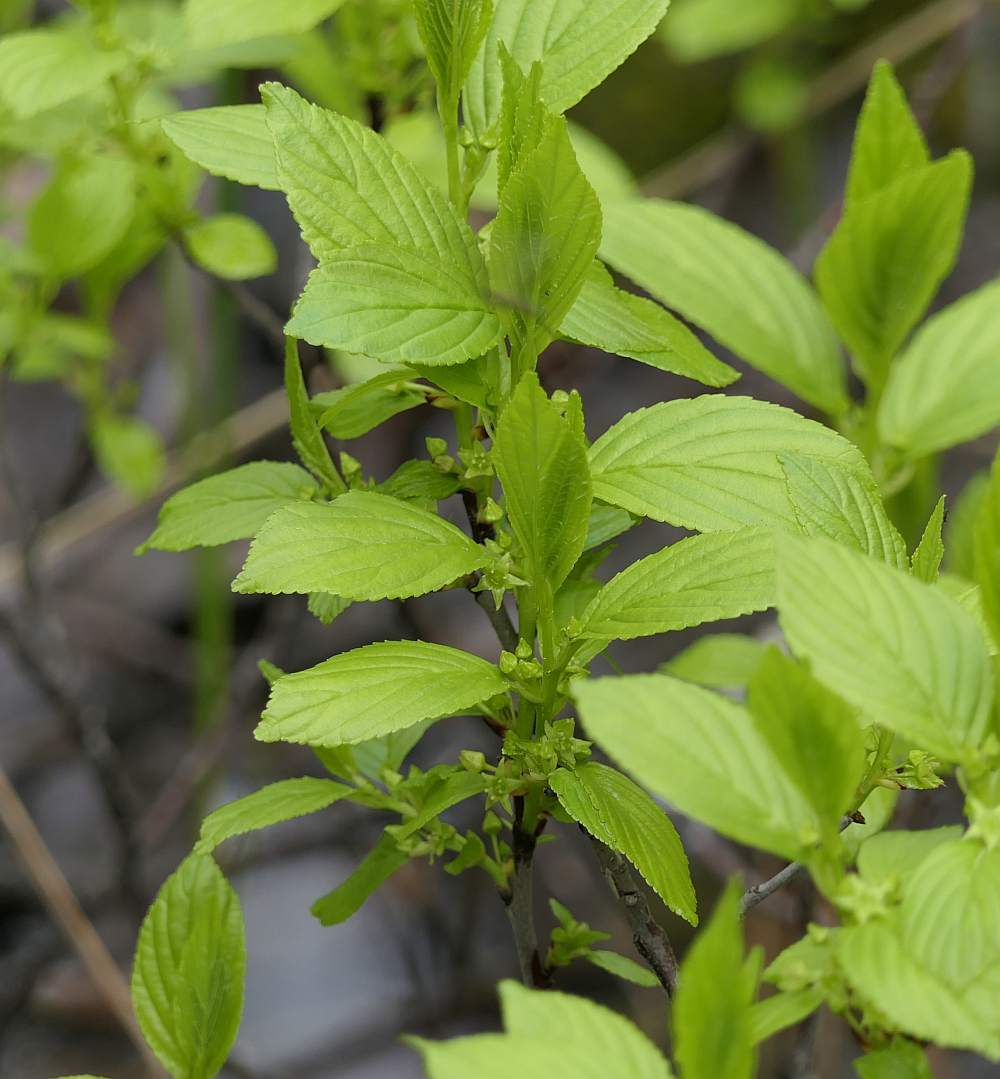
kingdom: Plantae
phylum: Tracheophyta
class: Magnoliopsida
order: Rosales
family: Rhamnaceae
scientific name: Rhamnaceae
